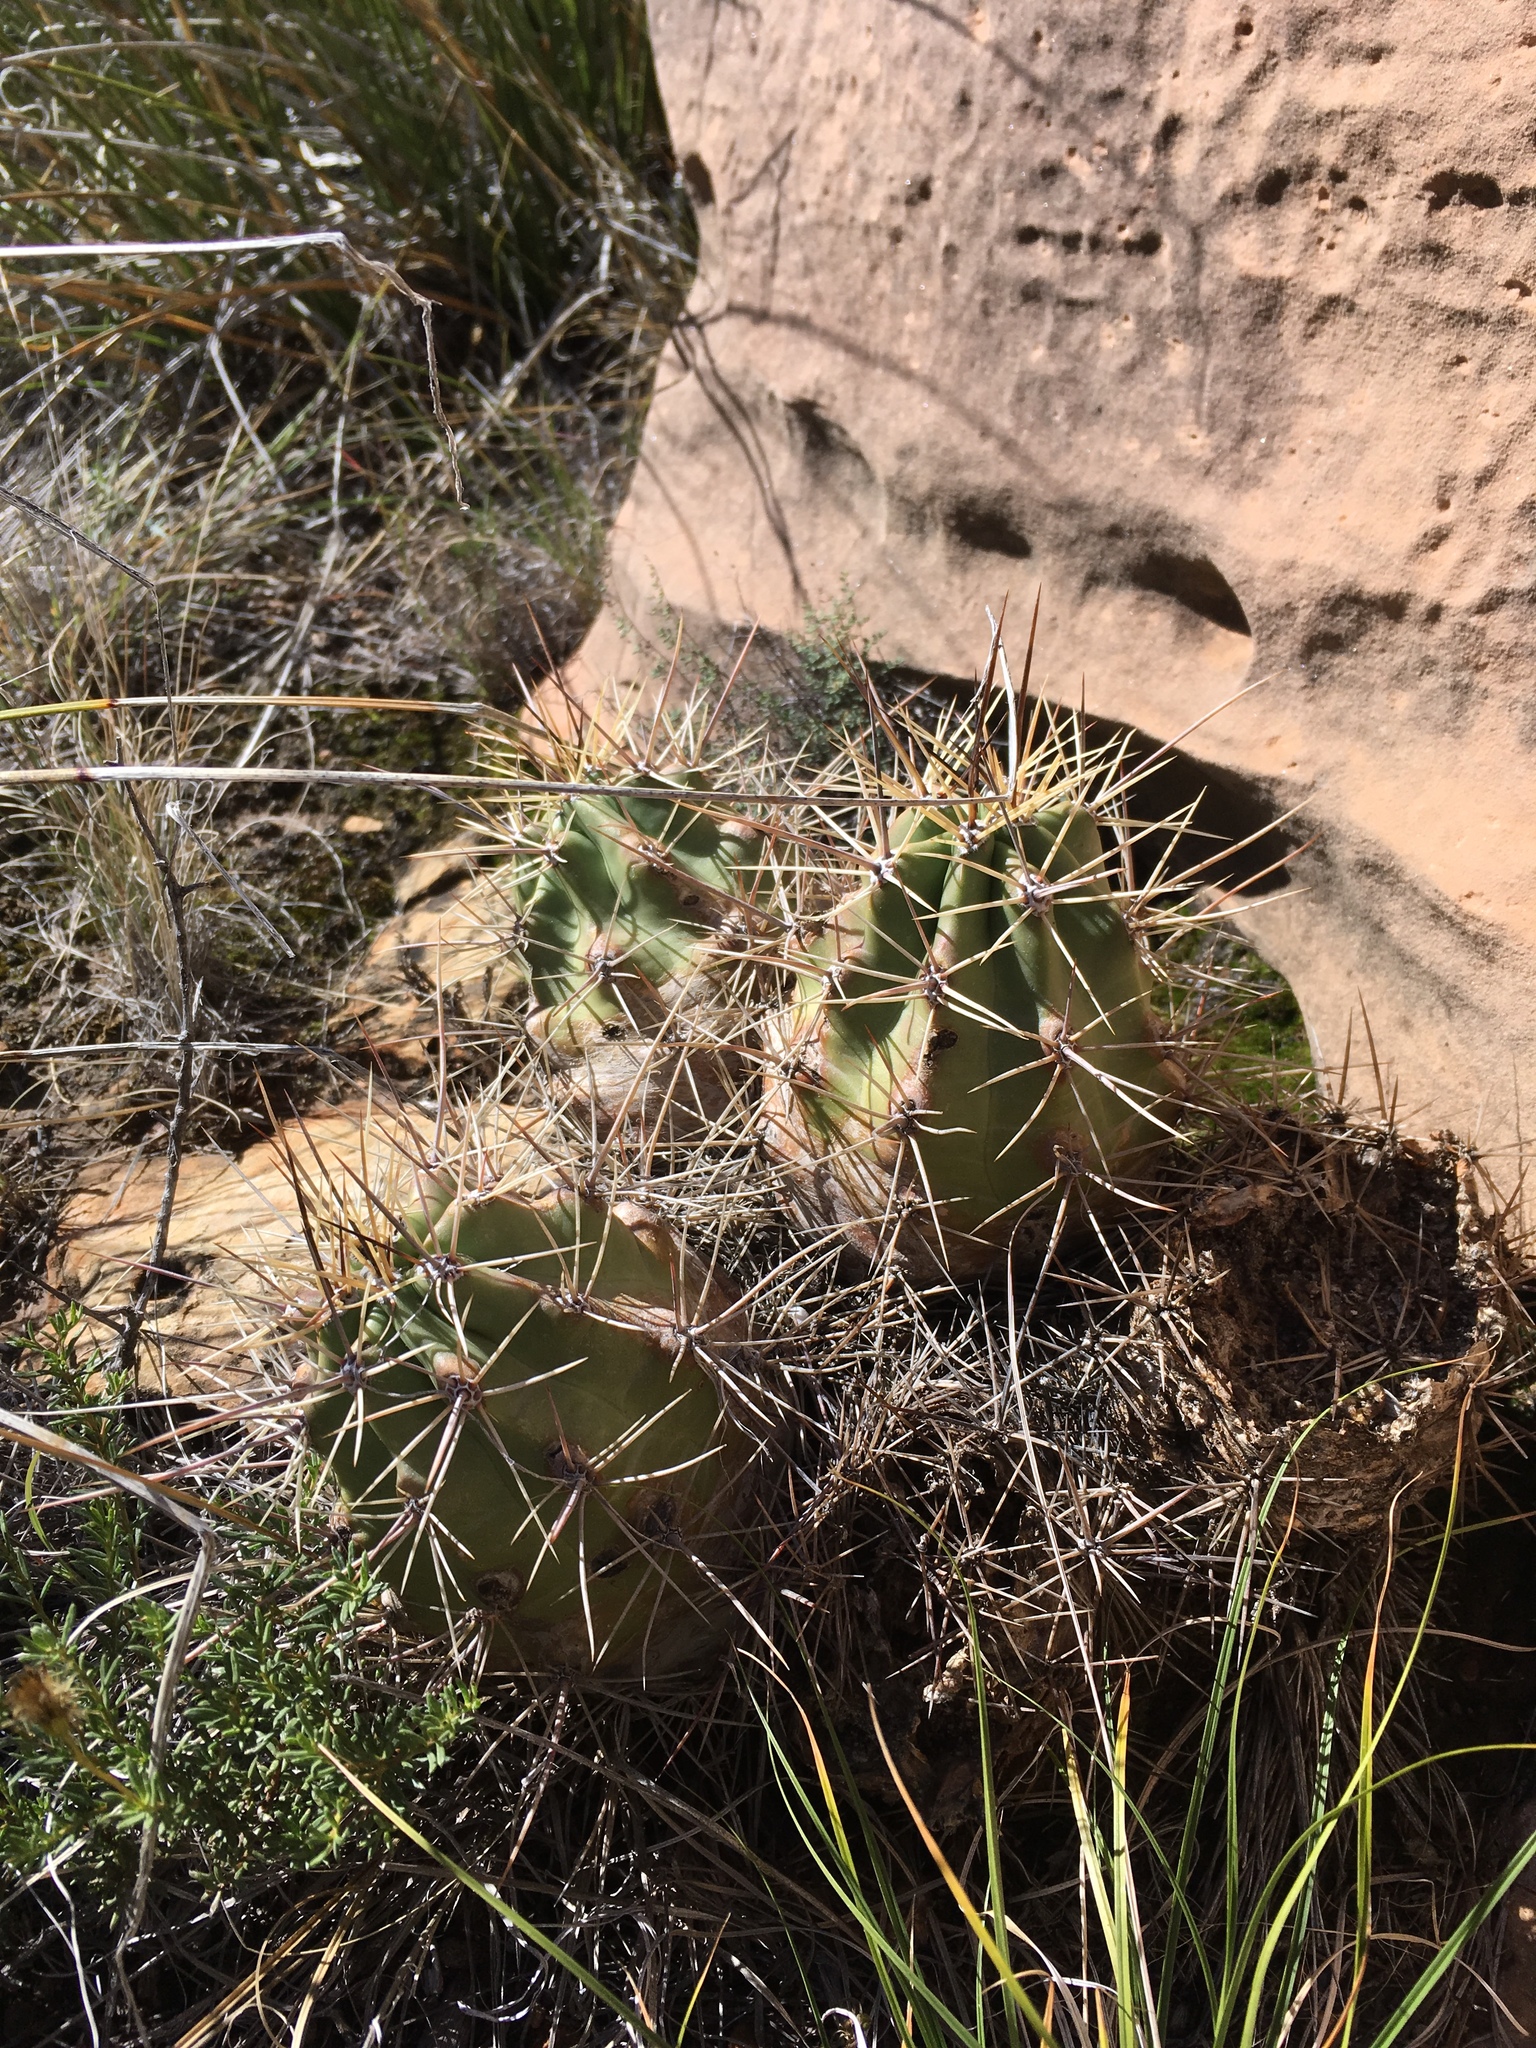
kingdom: Plantae
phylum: Tracheophyta
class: Magnoliopsida
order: Caryophyllales
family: Cactaceae
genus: Echinocereus
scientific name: Echinocereus coccineus
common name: Scarlet hedgehog cactus
